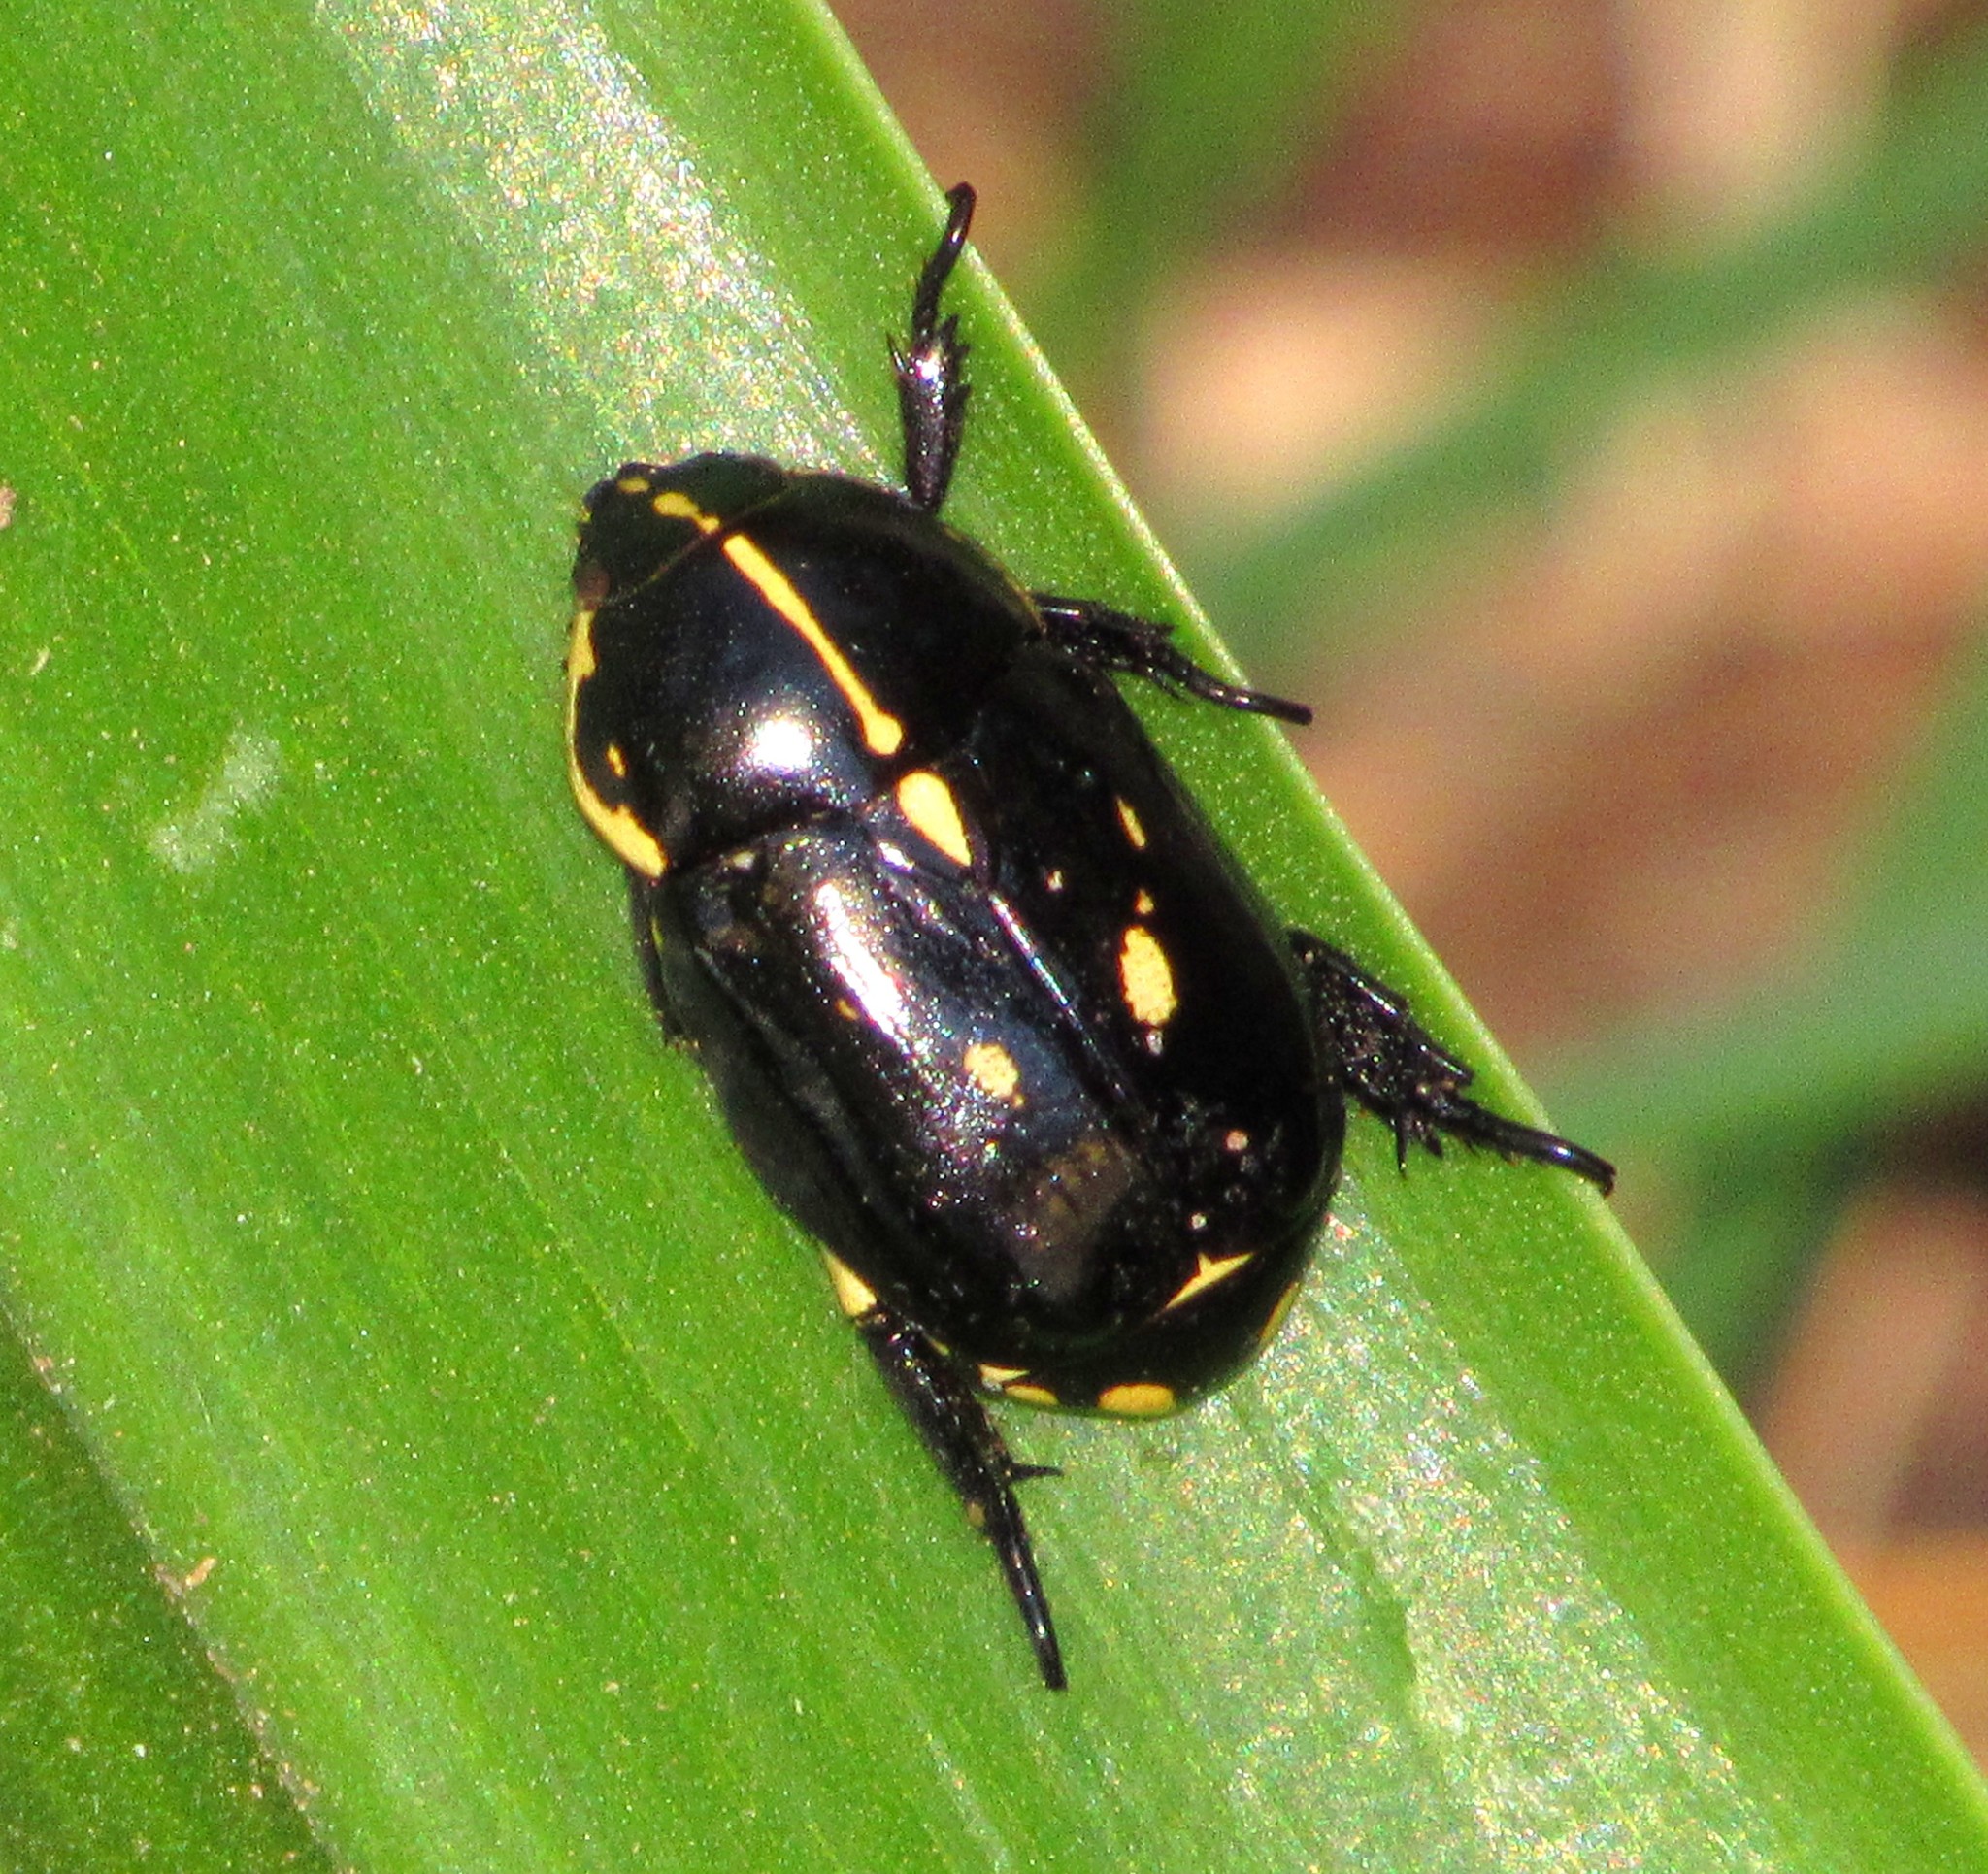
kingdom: Animalia
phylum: Arthropoda
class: Insecta
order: Coleoptera
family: Scarabaeidae
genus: Rutela
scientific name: Rutela lineola
